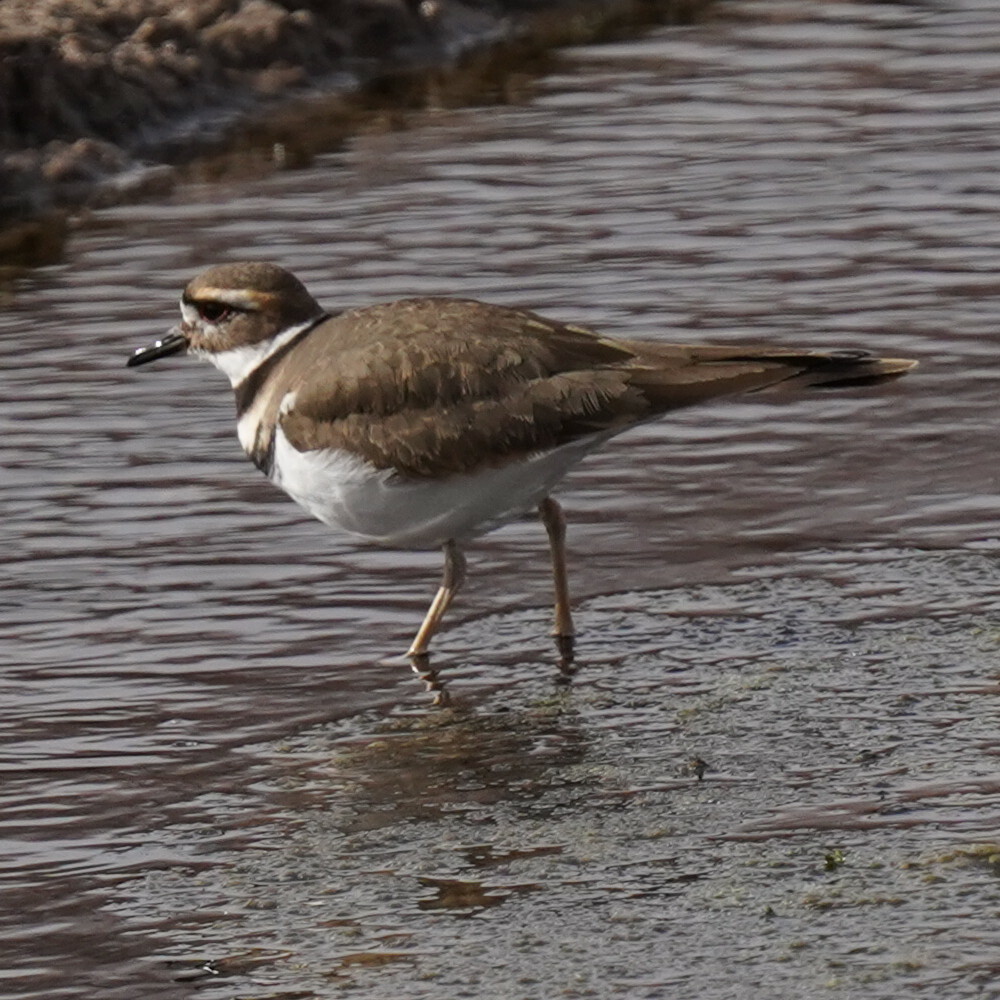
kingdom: Animalia
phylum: Chordata
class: Aves
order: Charadriiformes
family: Charadriidae
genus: Charadrius
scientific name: Charadrius vociferus
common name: Killdeer
